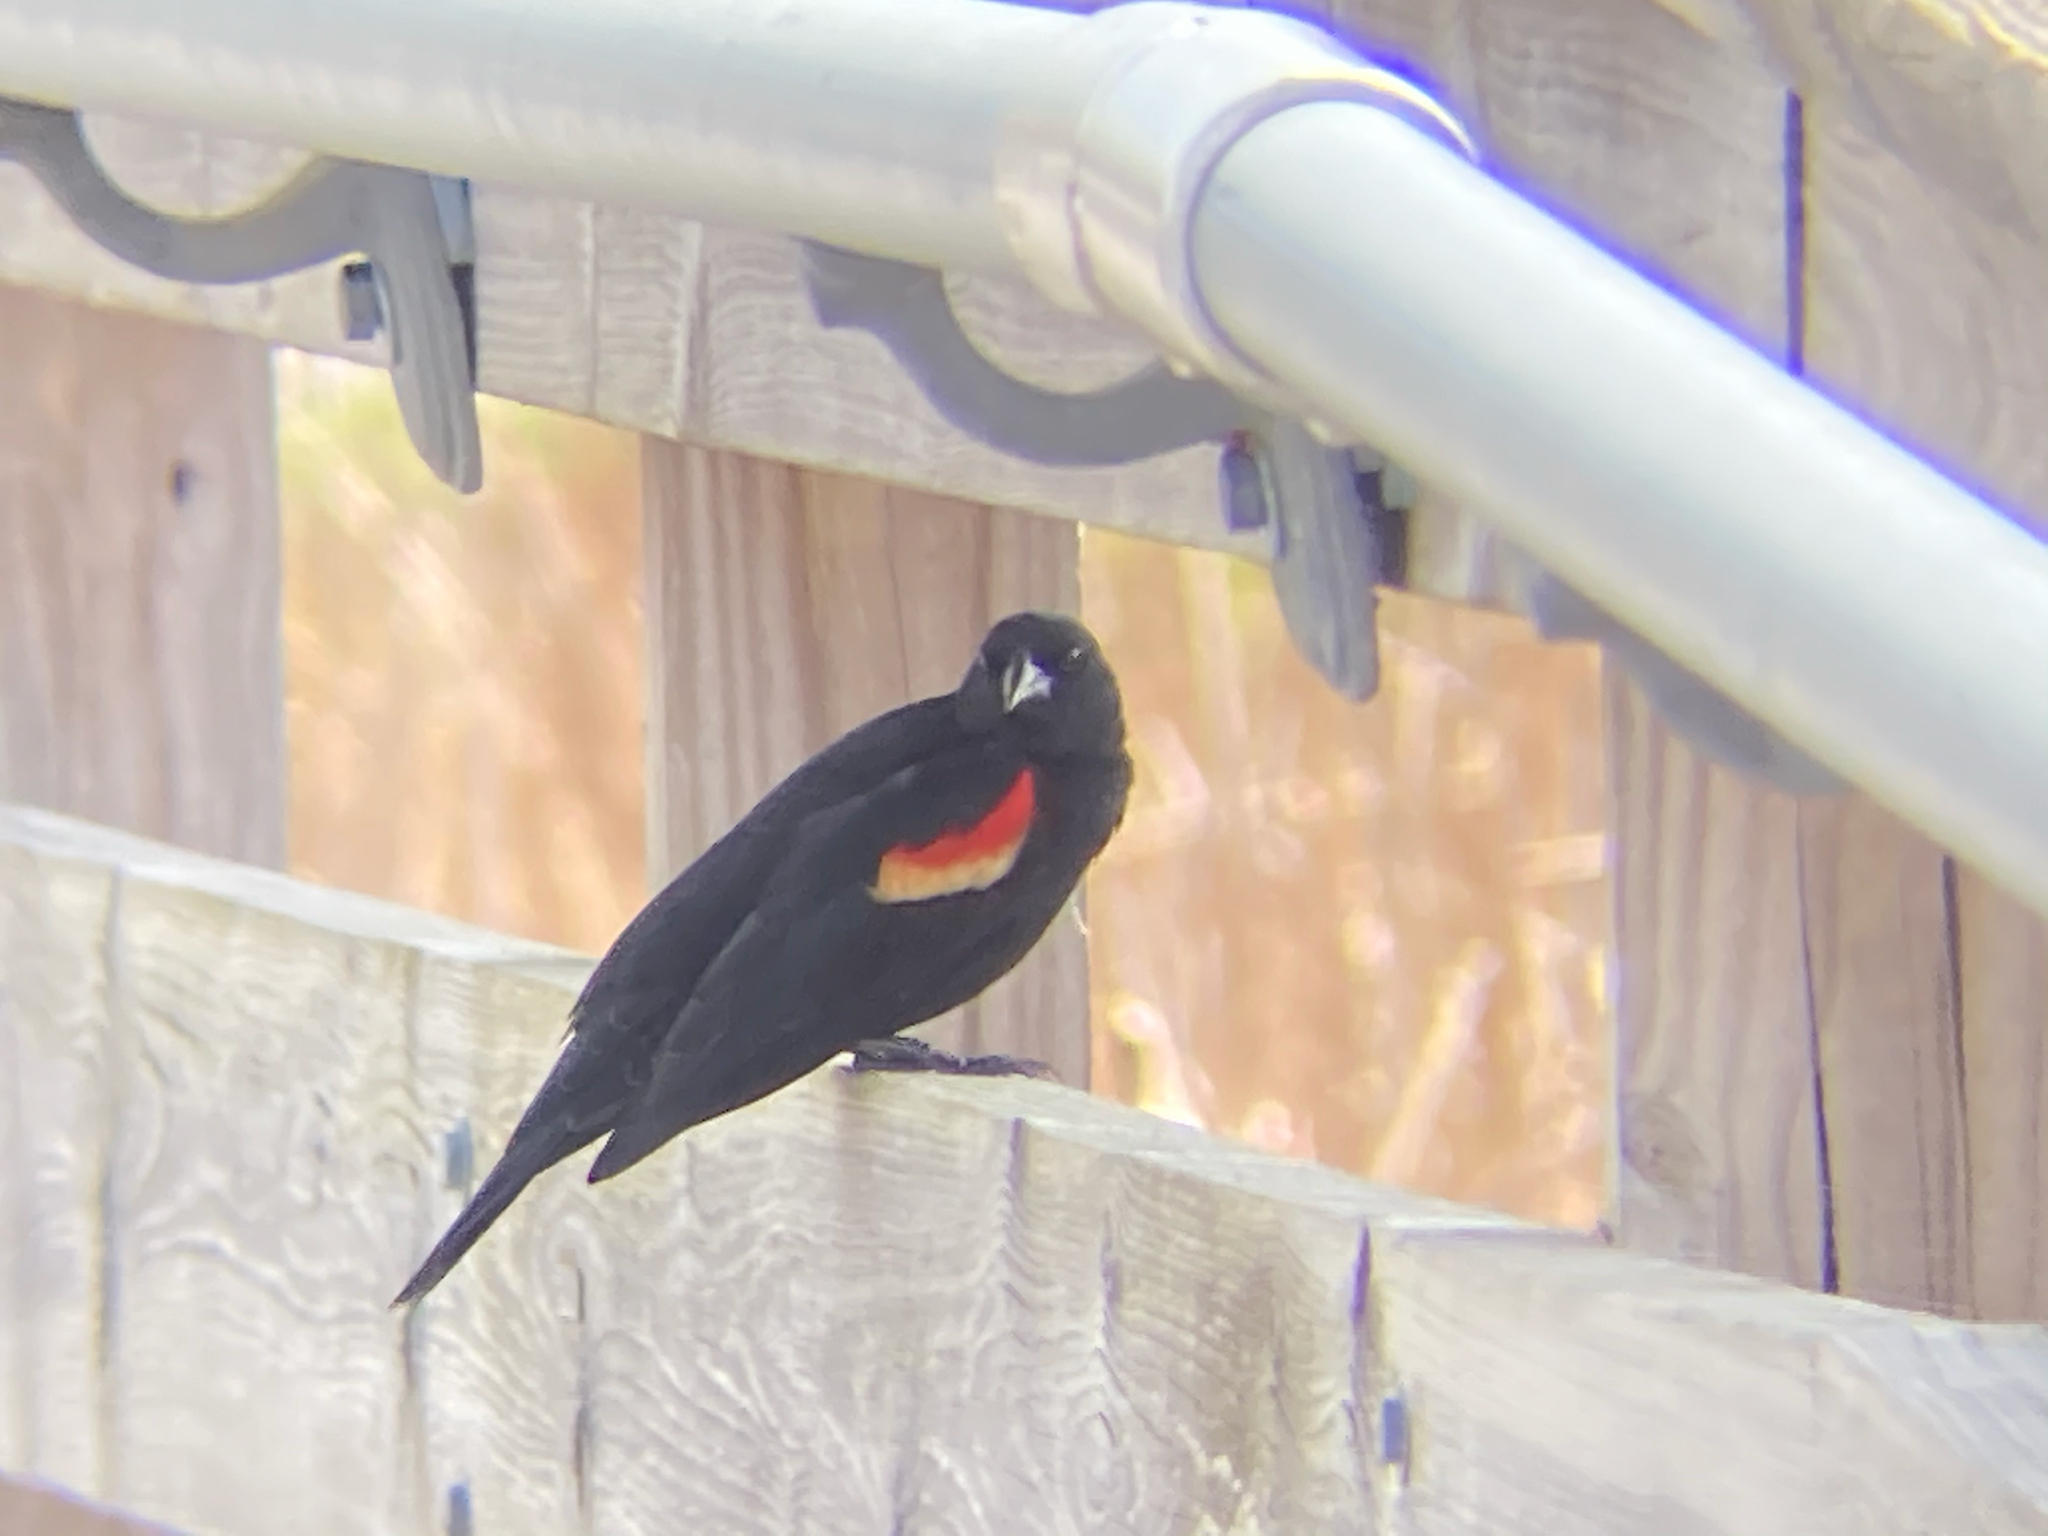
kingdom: Animalia
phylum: Chordata
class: Aves
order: Passeriformes
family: Icteridae
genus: Agelaius
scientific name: Agelaius phoeniceus
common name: Red-winged blackbird
